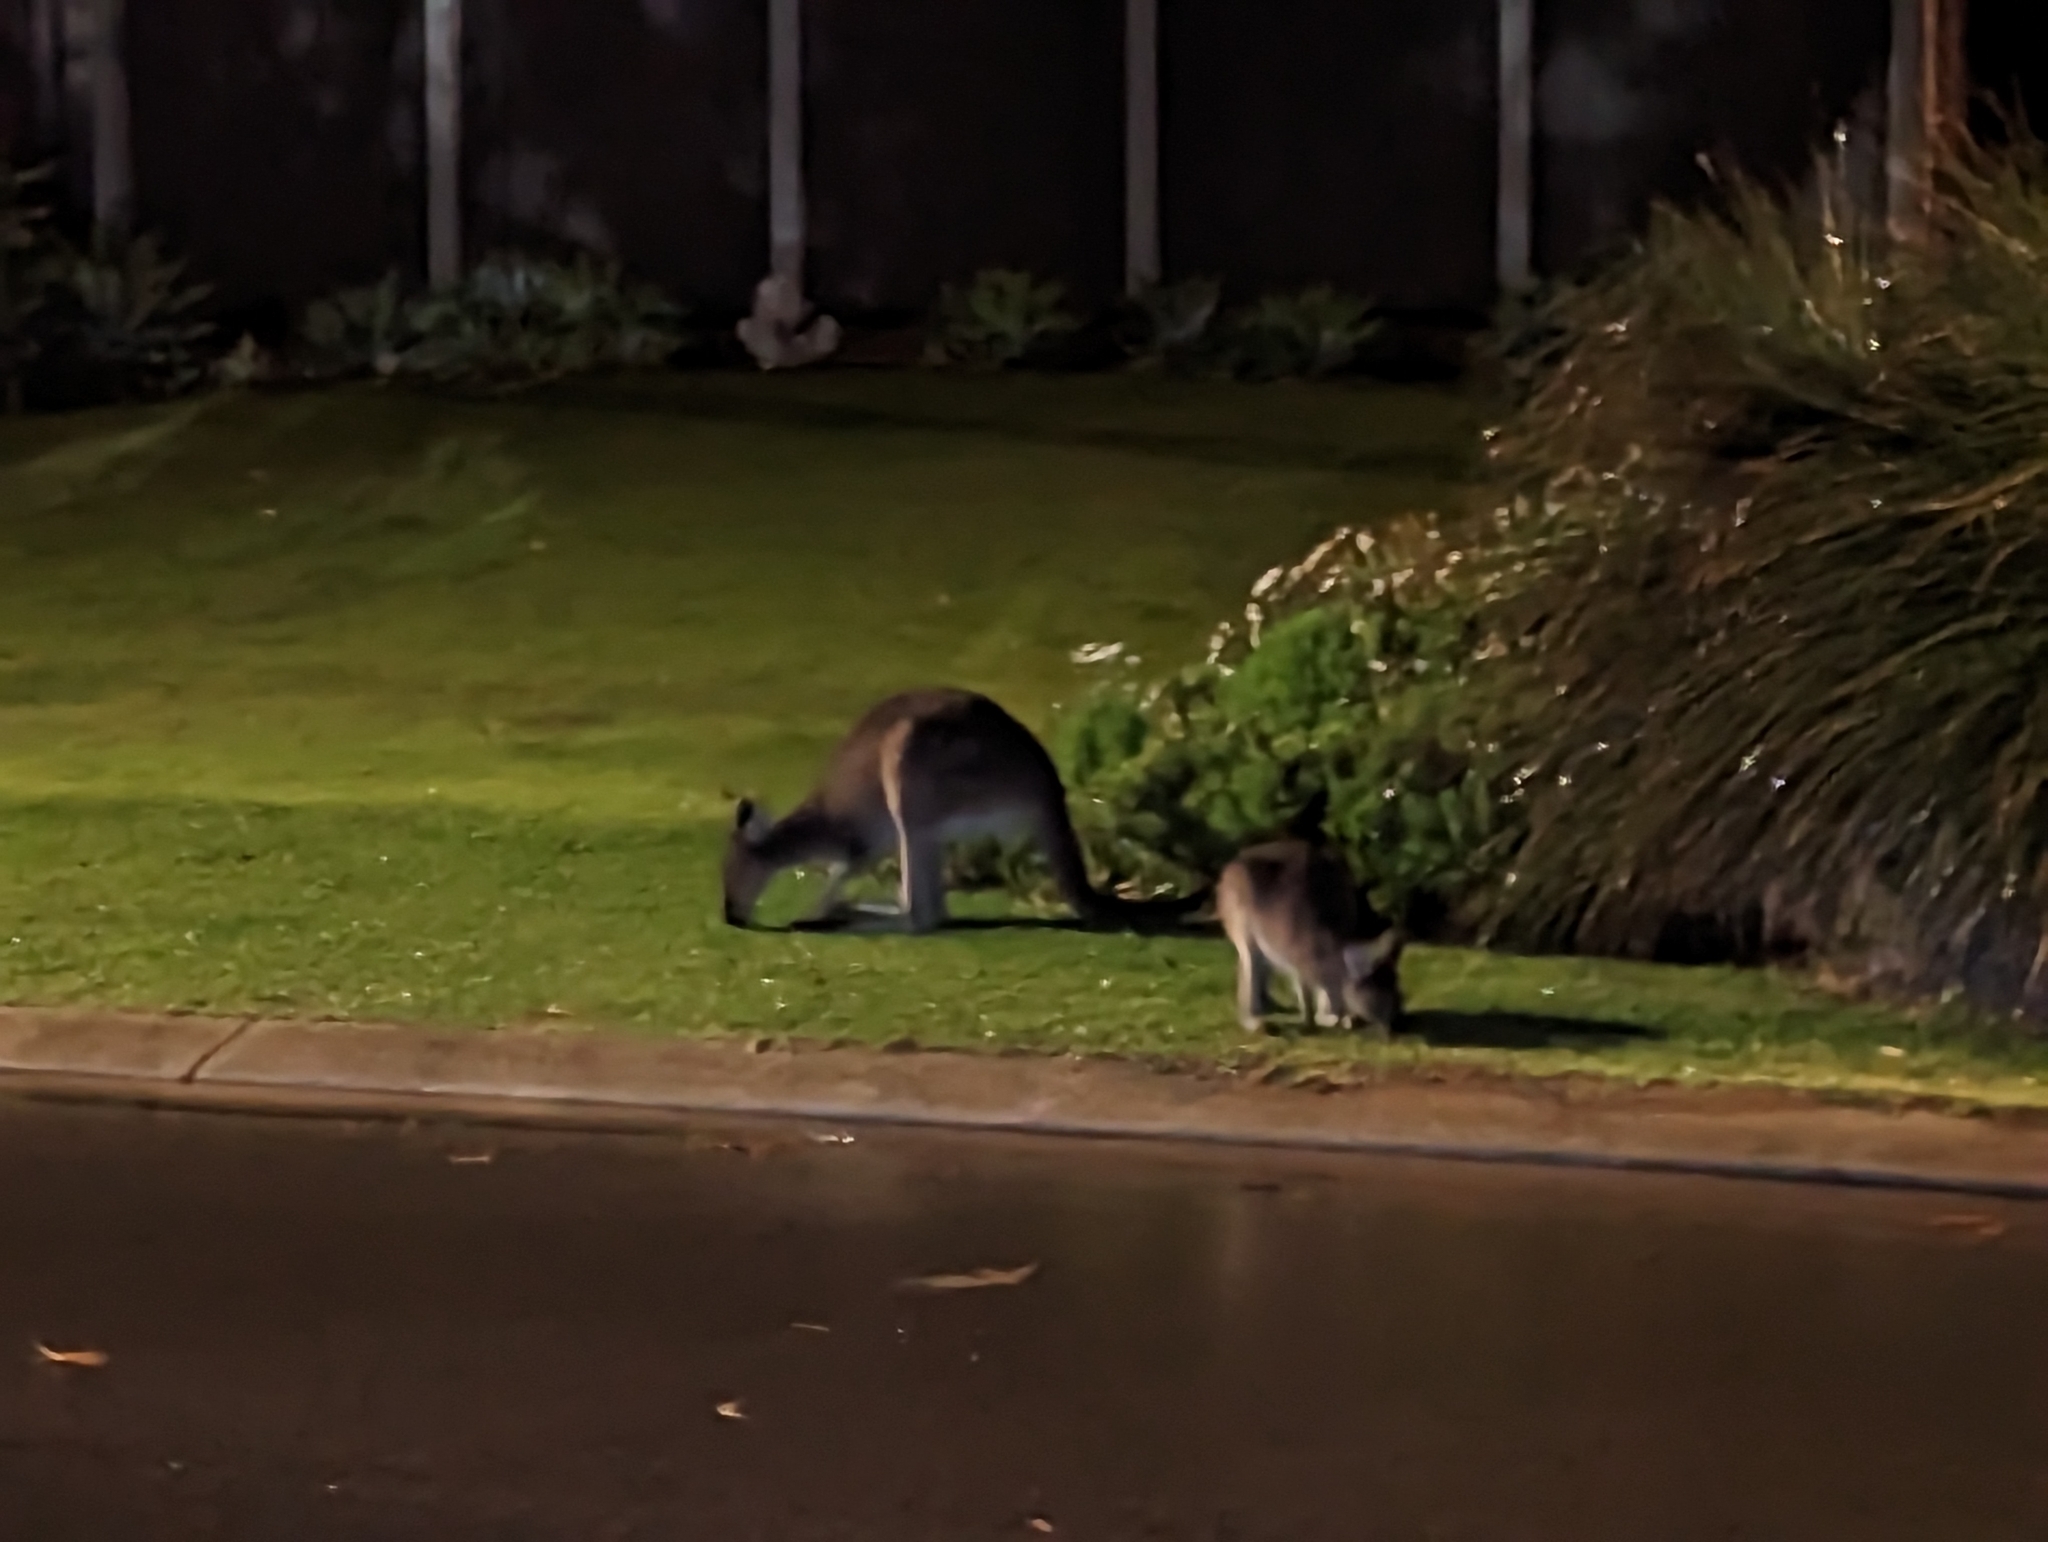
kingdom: Animalia
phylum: Chordata
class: Mammalia
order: Diprotodontia
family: Macropodidae
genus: Macropus
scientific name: Macropus fuliginosus
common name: Western grey kangaroo
